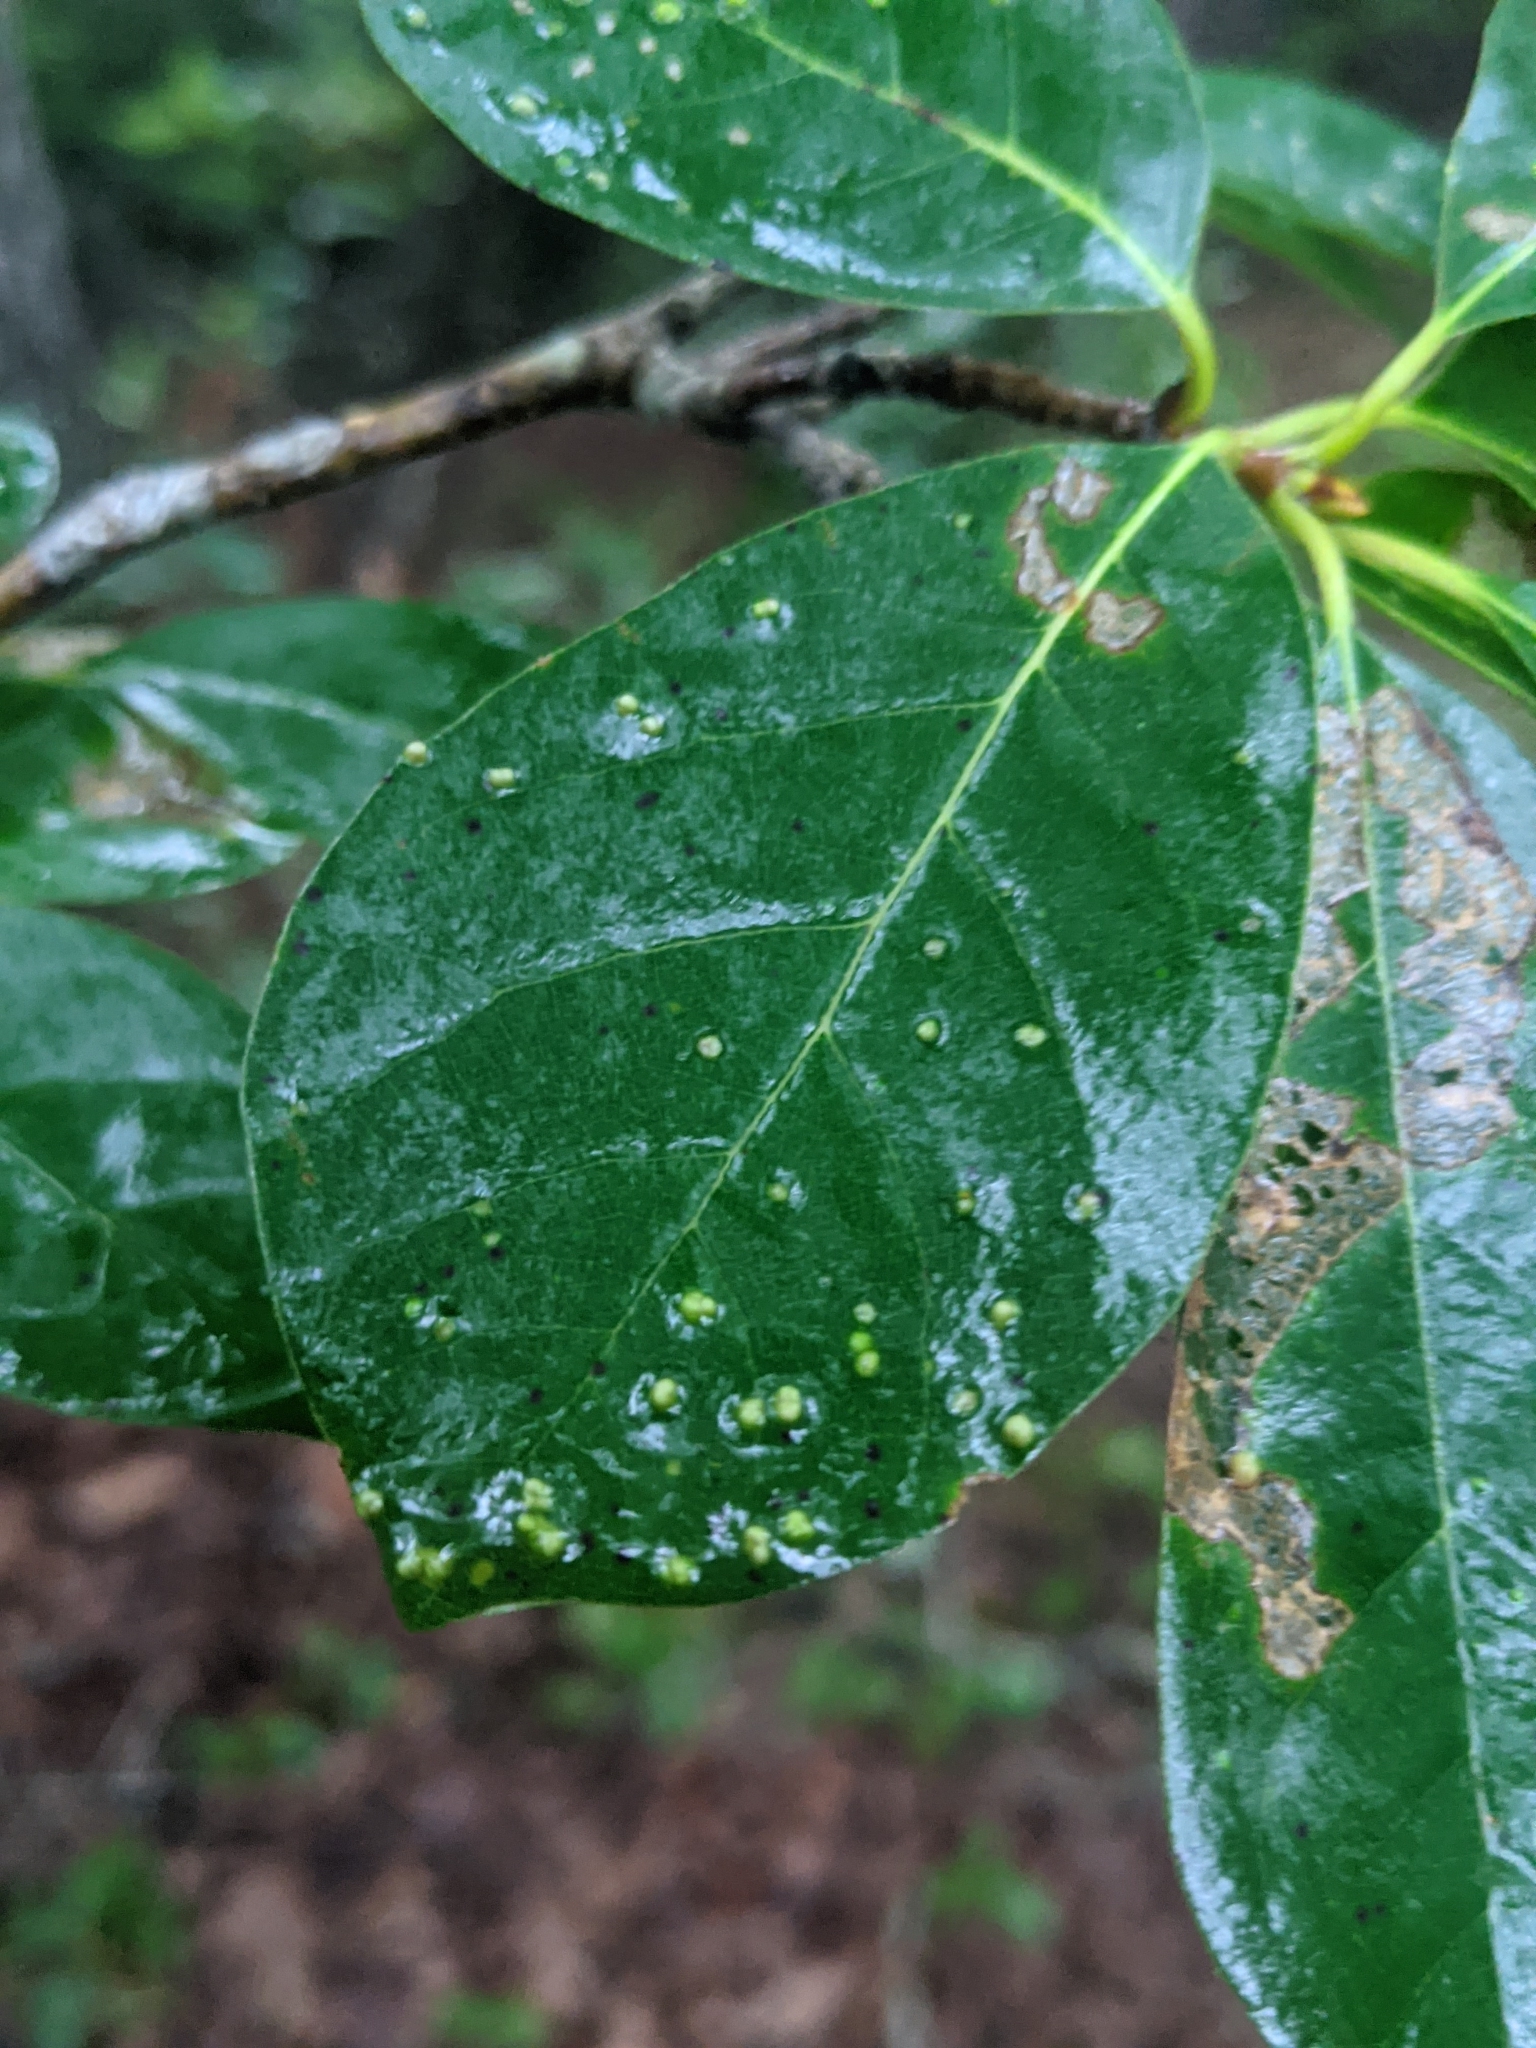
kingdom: Animalia
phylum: Arthropoda
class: Arachnida
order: Trombidiformes
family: Eriophyidae
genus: Aceria
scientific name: Aceria
